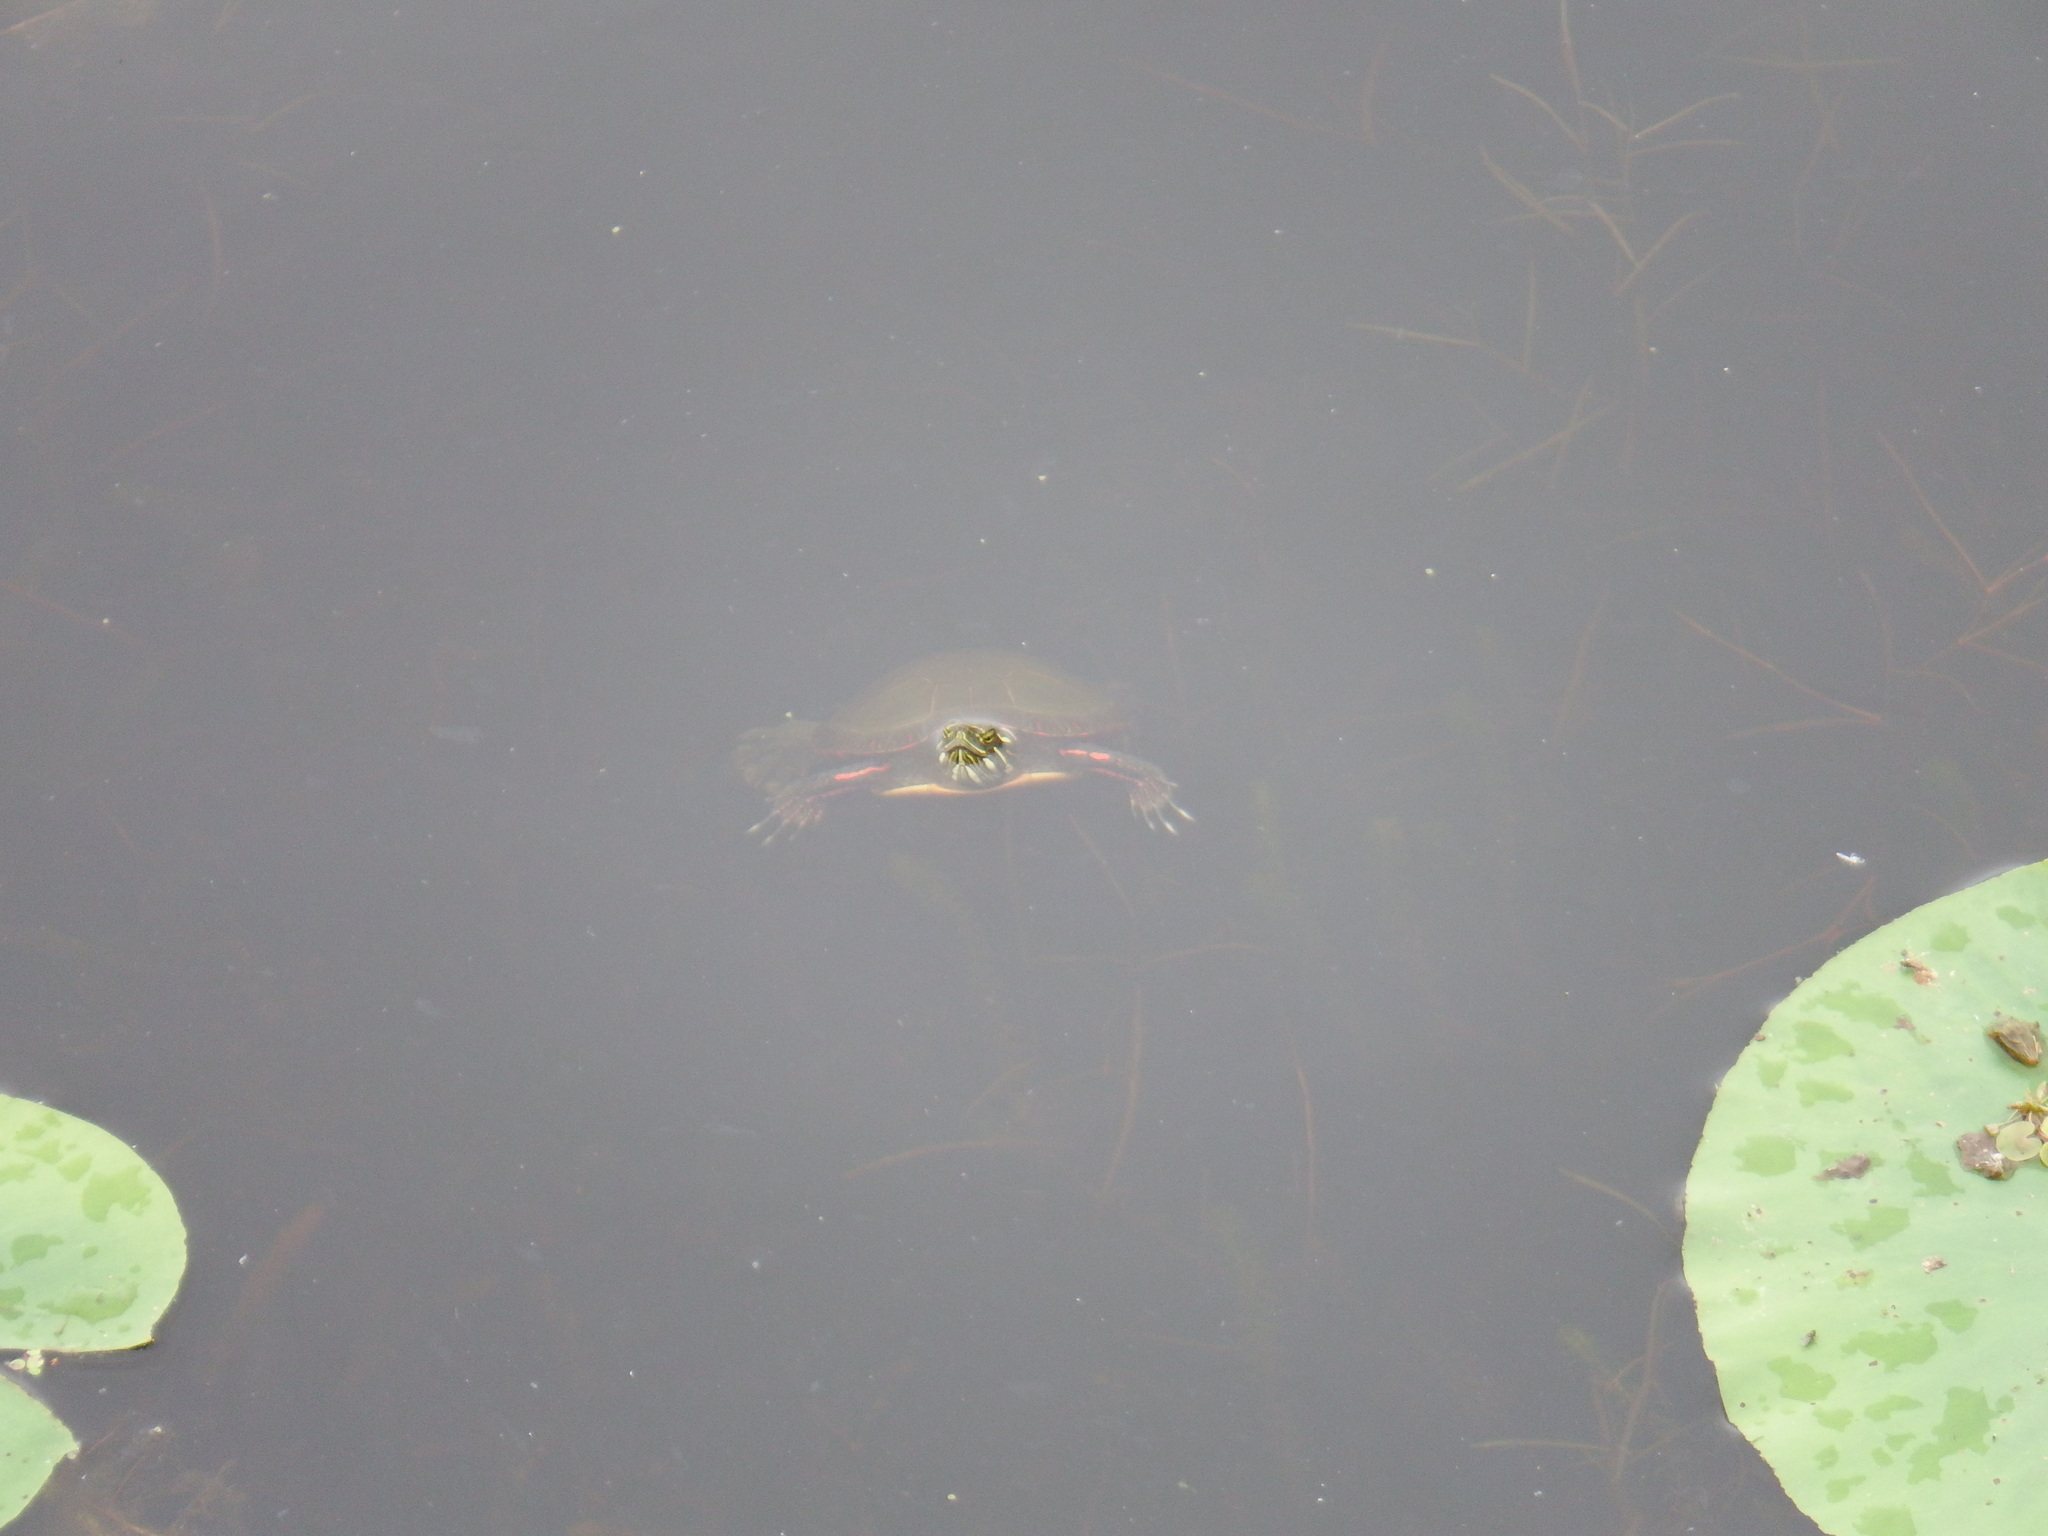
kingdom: Animalia
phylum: Chordata
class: Testudines
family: Emydidae
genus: Chrysemys
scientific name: Chrysemys picta
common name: Painted turtle
